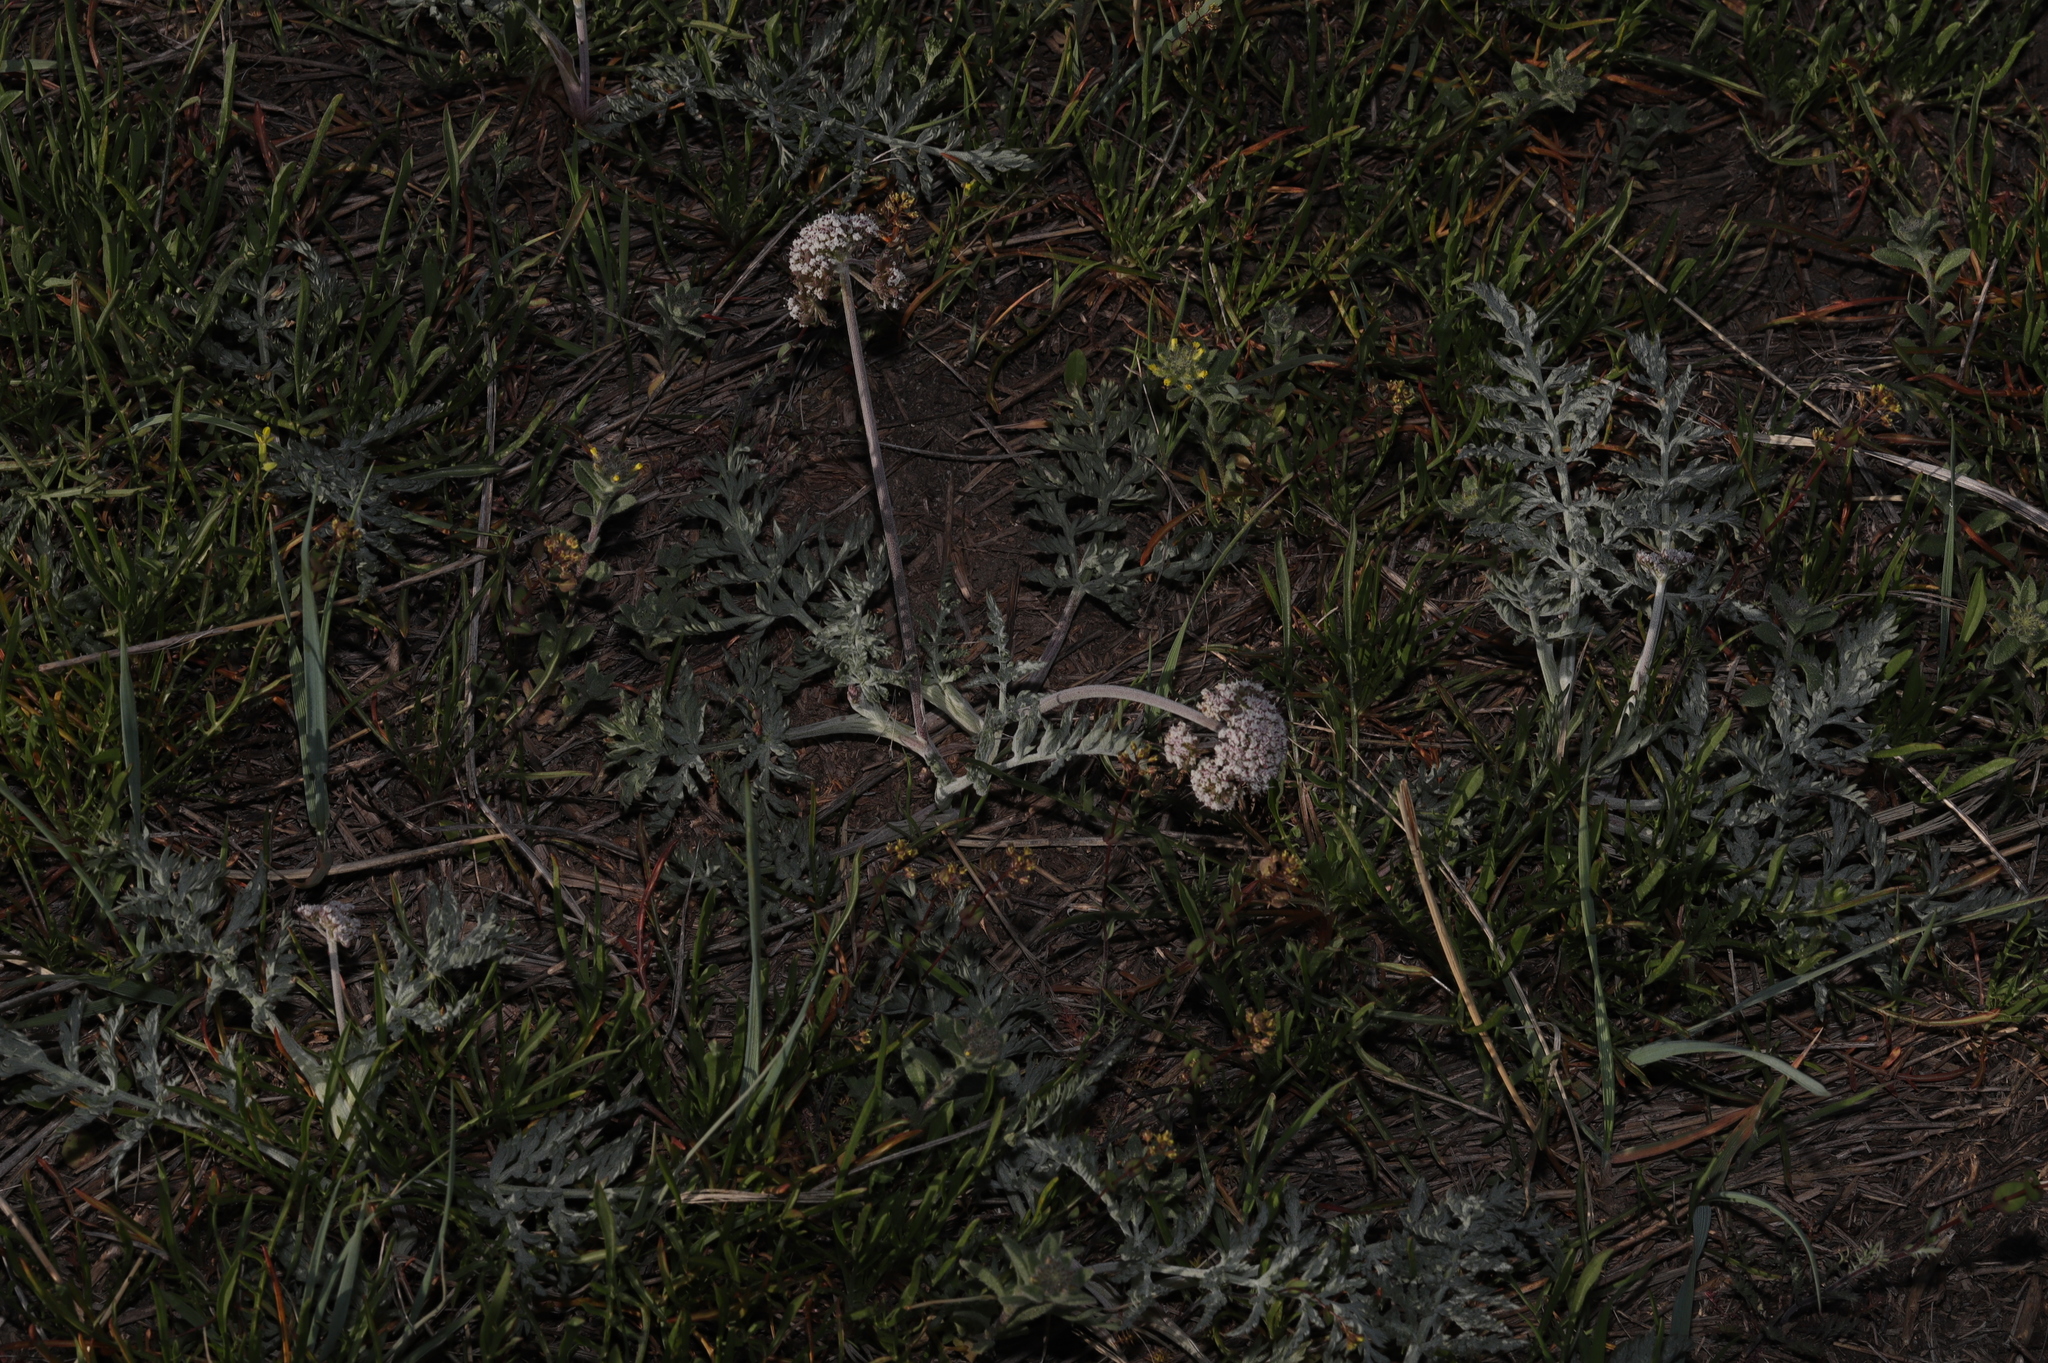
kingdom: Plantae
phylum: Tracheophyta
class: Magnoliopsida
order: Apiales
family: Apiaceae
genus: Lomatium
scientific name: Lomatium orientale
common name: Eastern cous
